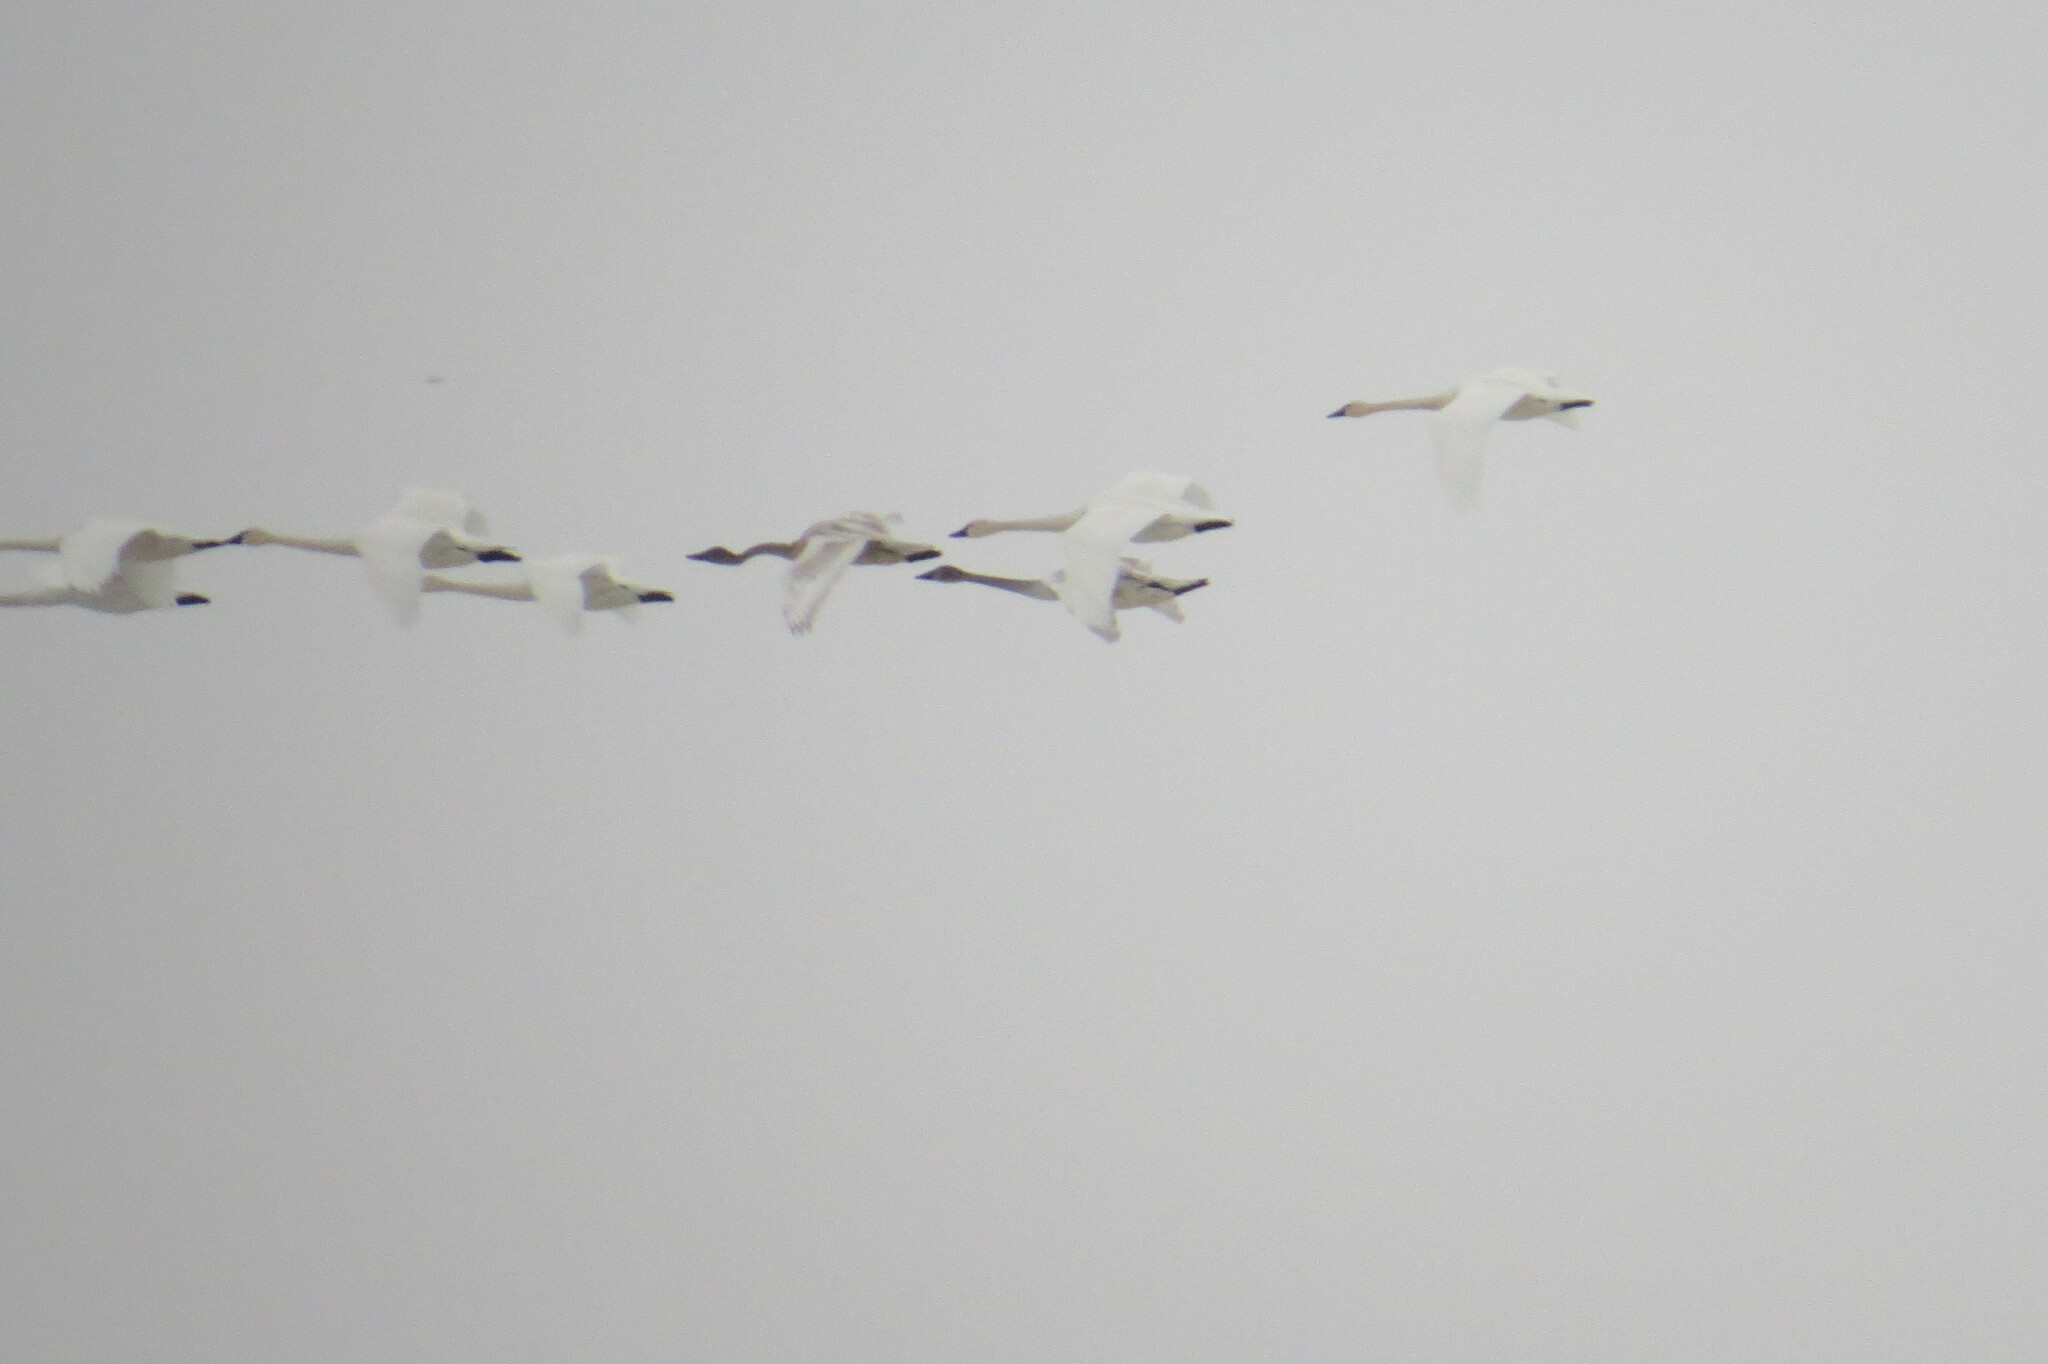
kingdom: Animalia
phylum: Chordata
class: Aves
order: Anseriformes
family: Anatidae
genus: Cygnus
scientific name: Cygnus columbianus
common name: Tundra swan
